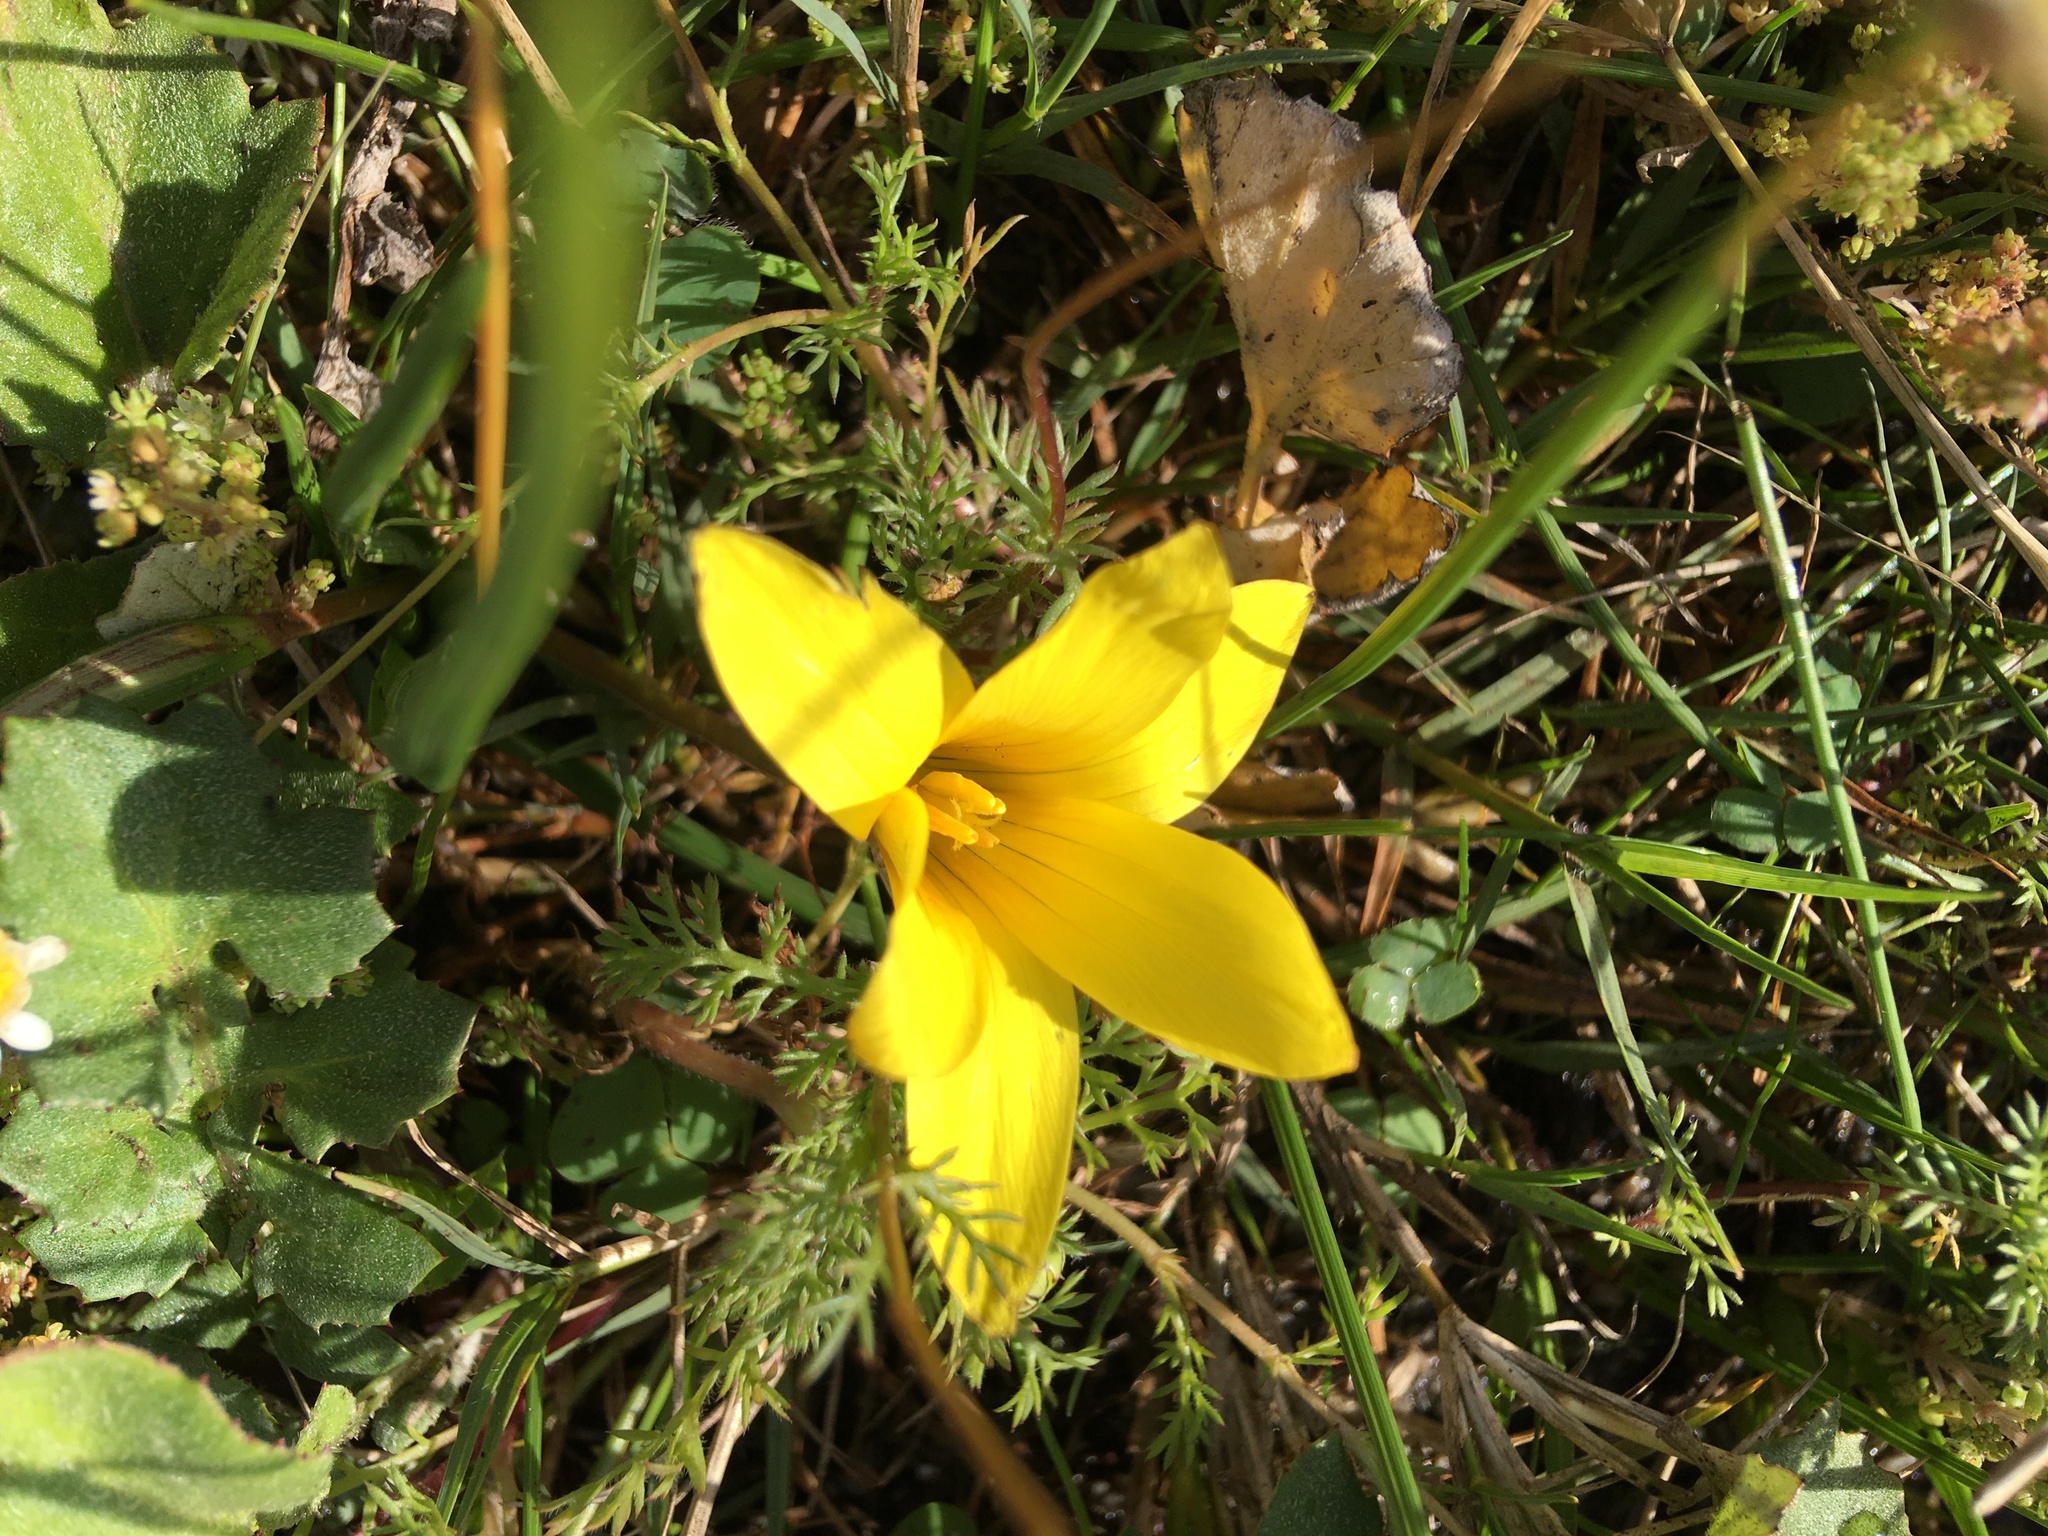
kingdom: Plantae
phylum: Tracheophyta
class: Liliopsida
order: Asparagales
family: Iridaceae
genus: Romulea
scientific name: Romulea flava
